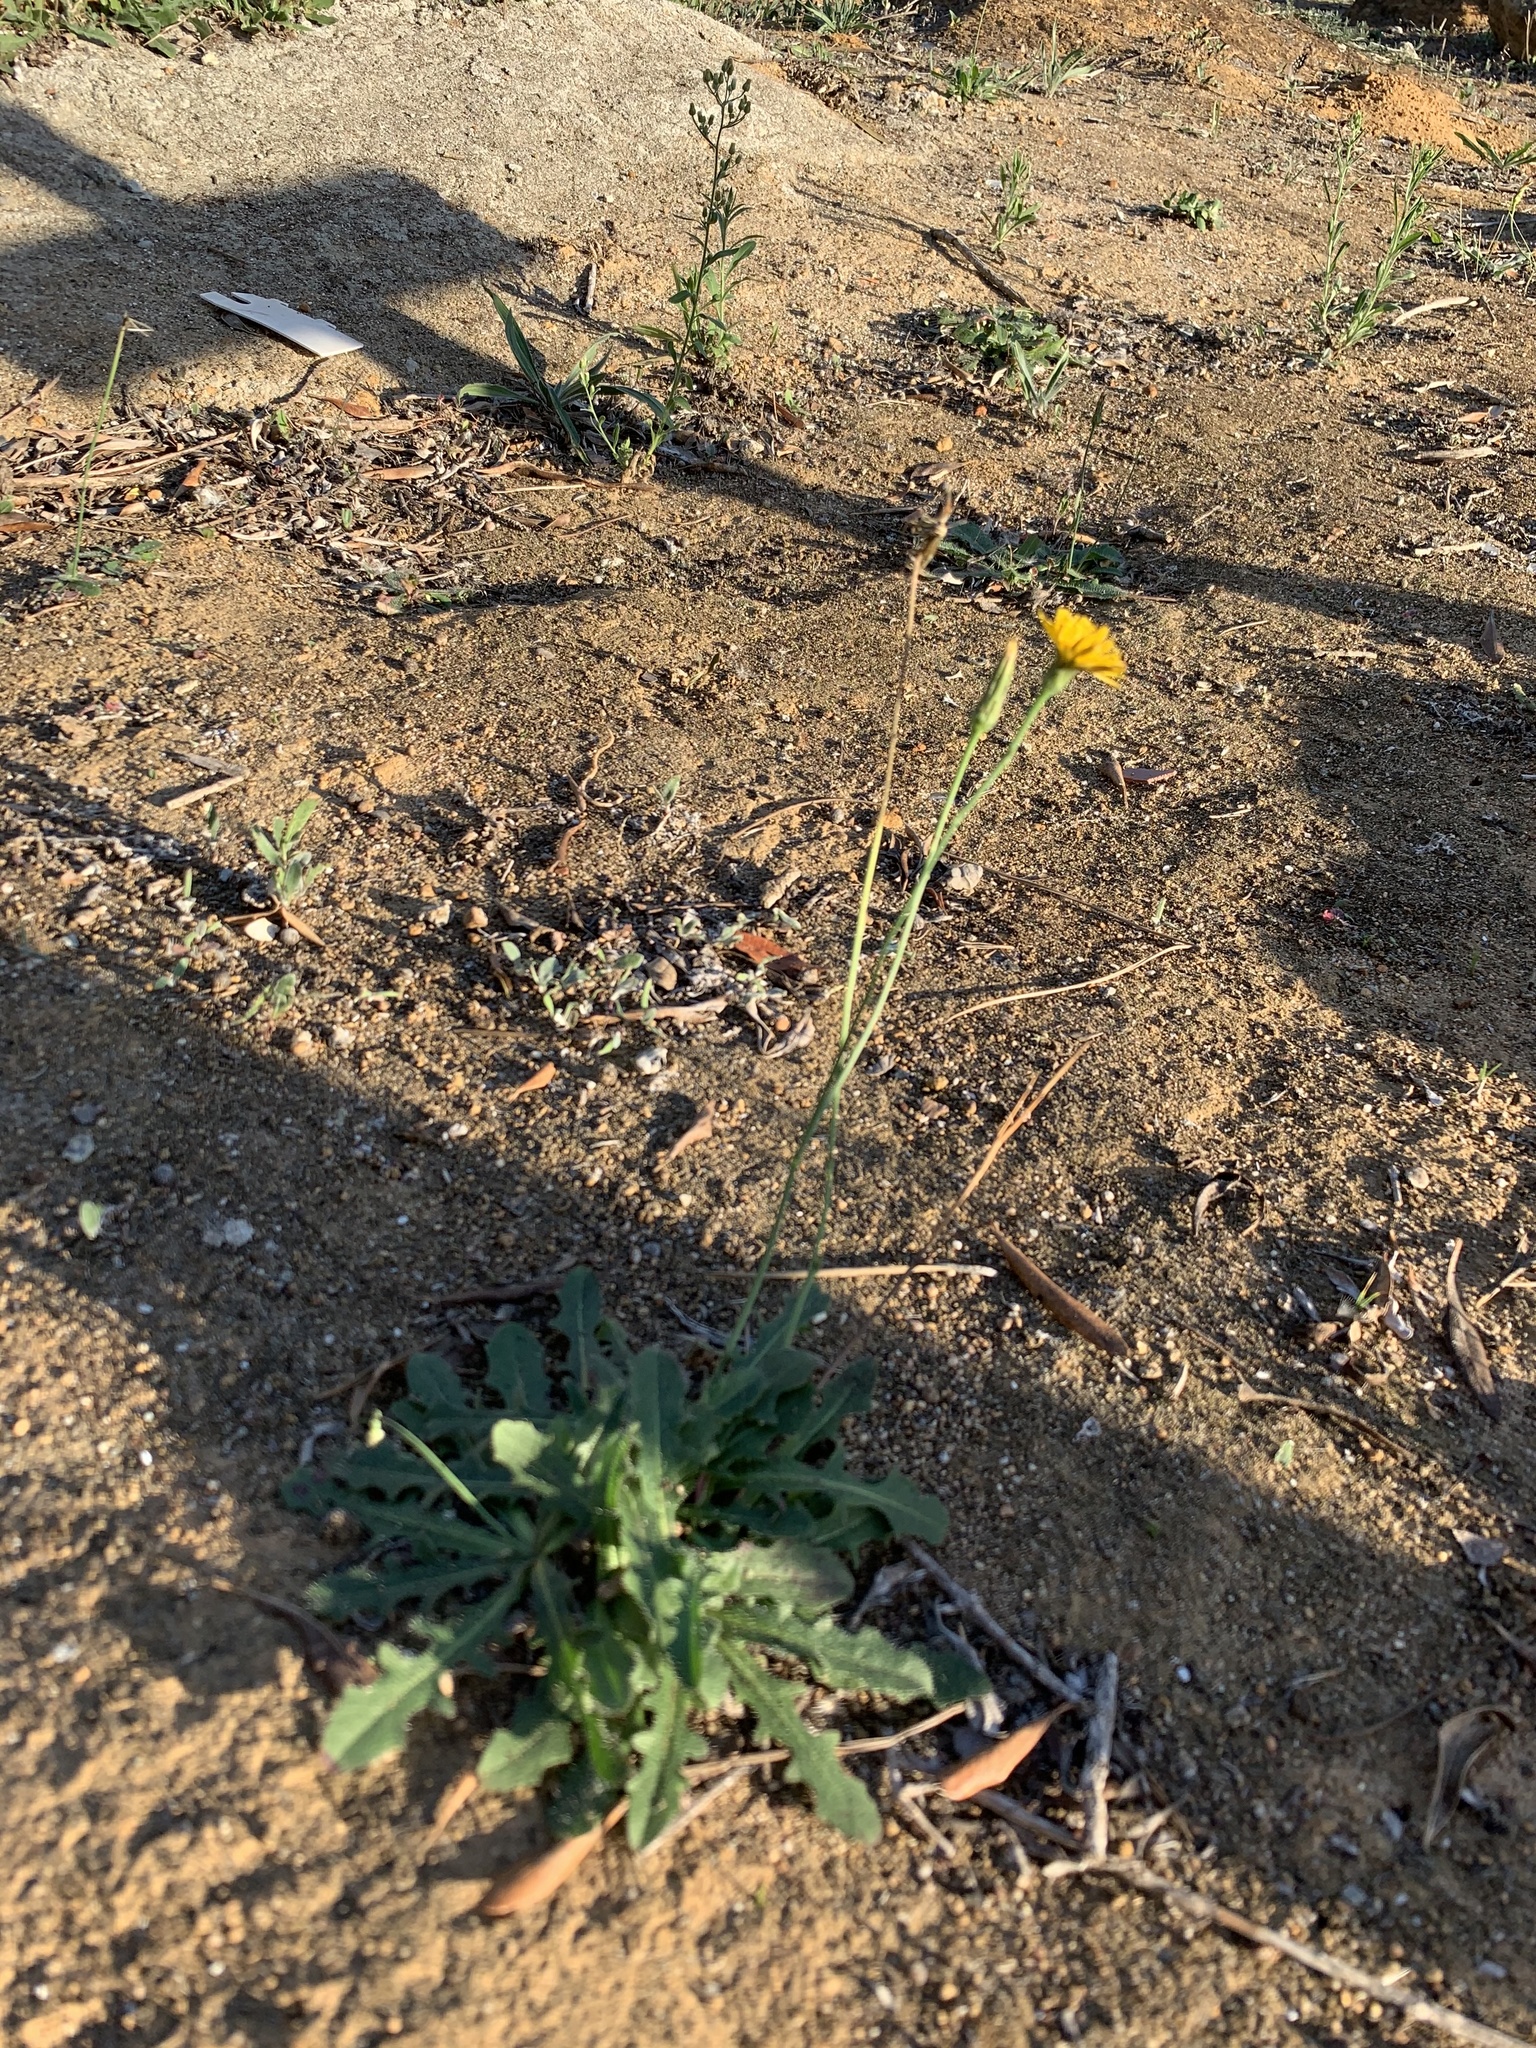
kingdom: Plantae
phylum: Tracheophyta
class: Magnoliopsida
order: Asterales
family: Asteraceae
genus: Hypochaeris
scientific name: Hypochaeris radicata
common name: Flatweed
